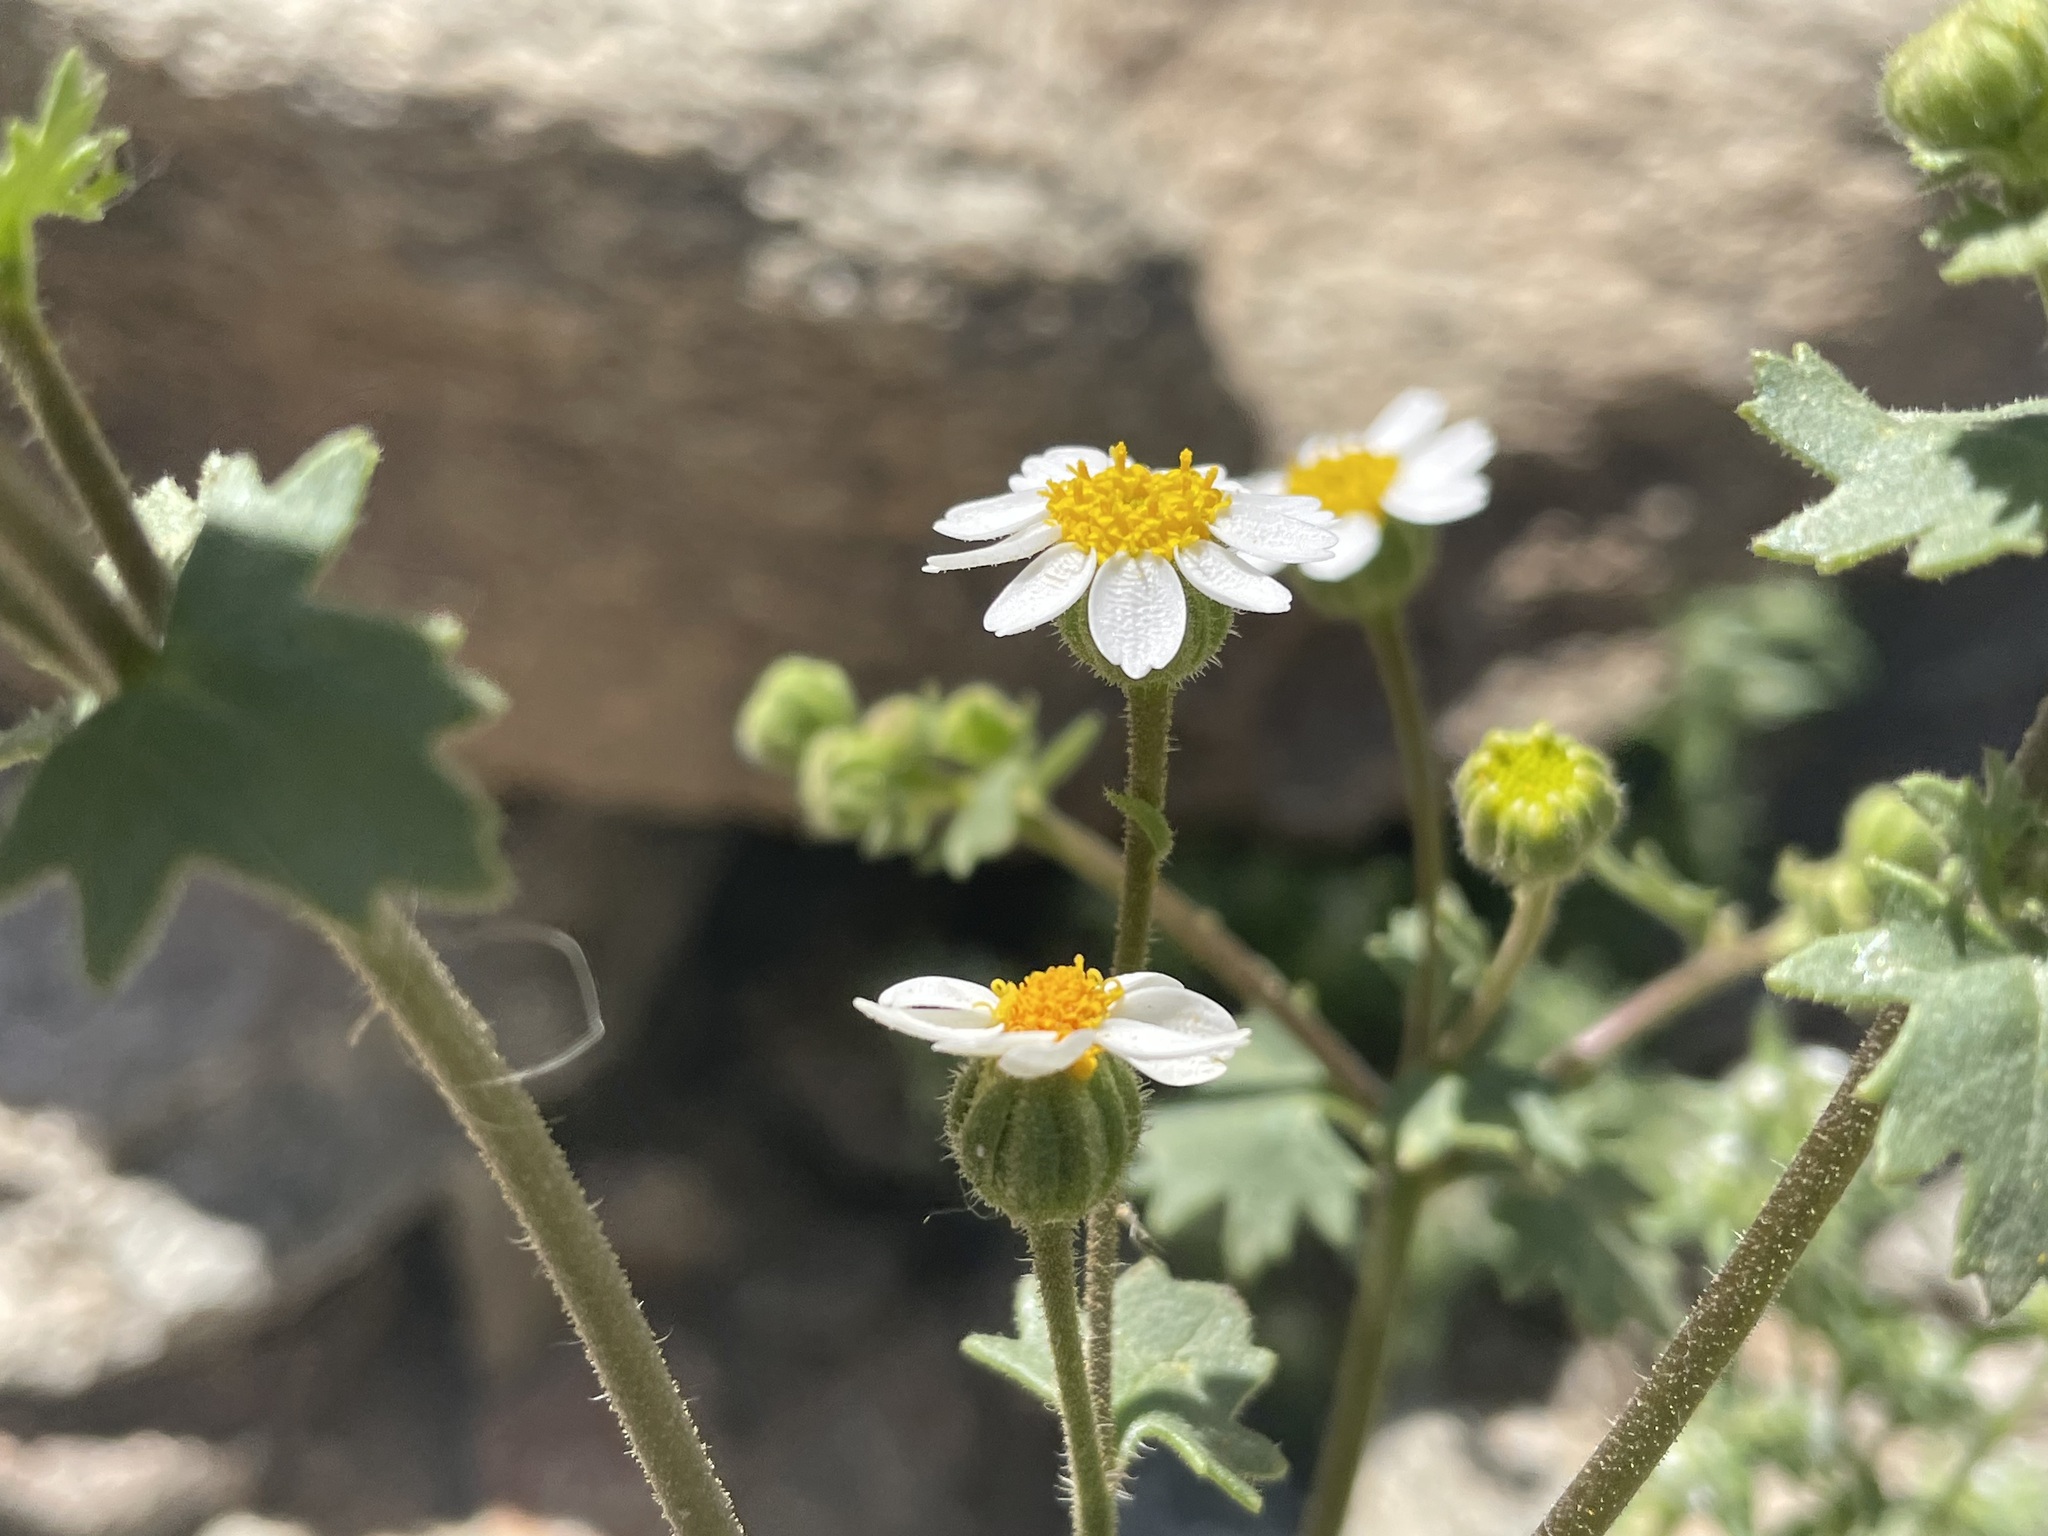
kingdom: Plantae
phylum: Tracheophyta
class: Magnoliopsida
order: Asterales
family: Asteraceae
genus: Laphamia
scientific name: Laphamia emoryi
